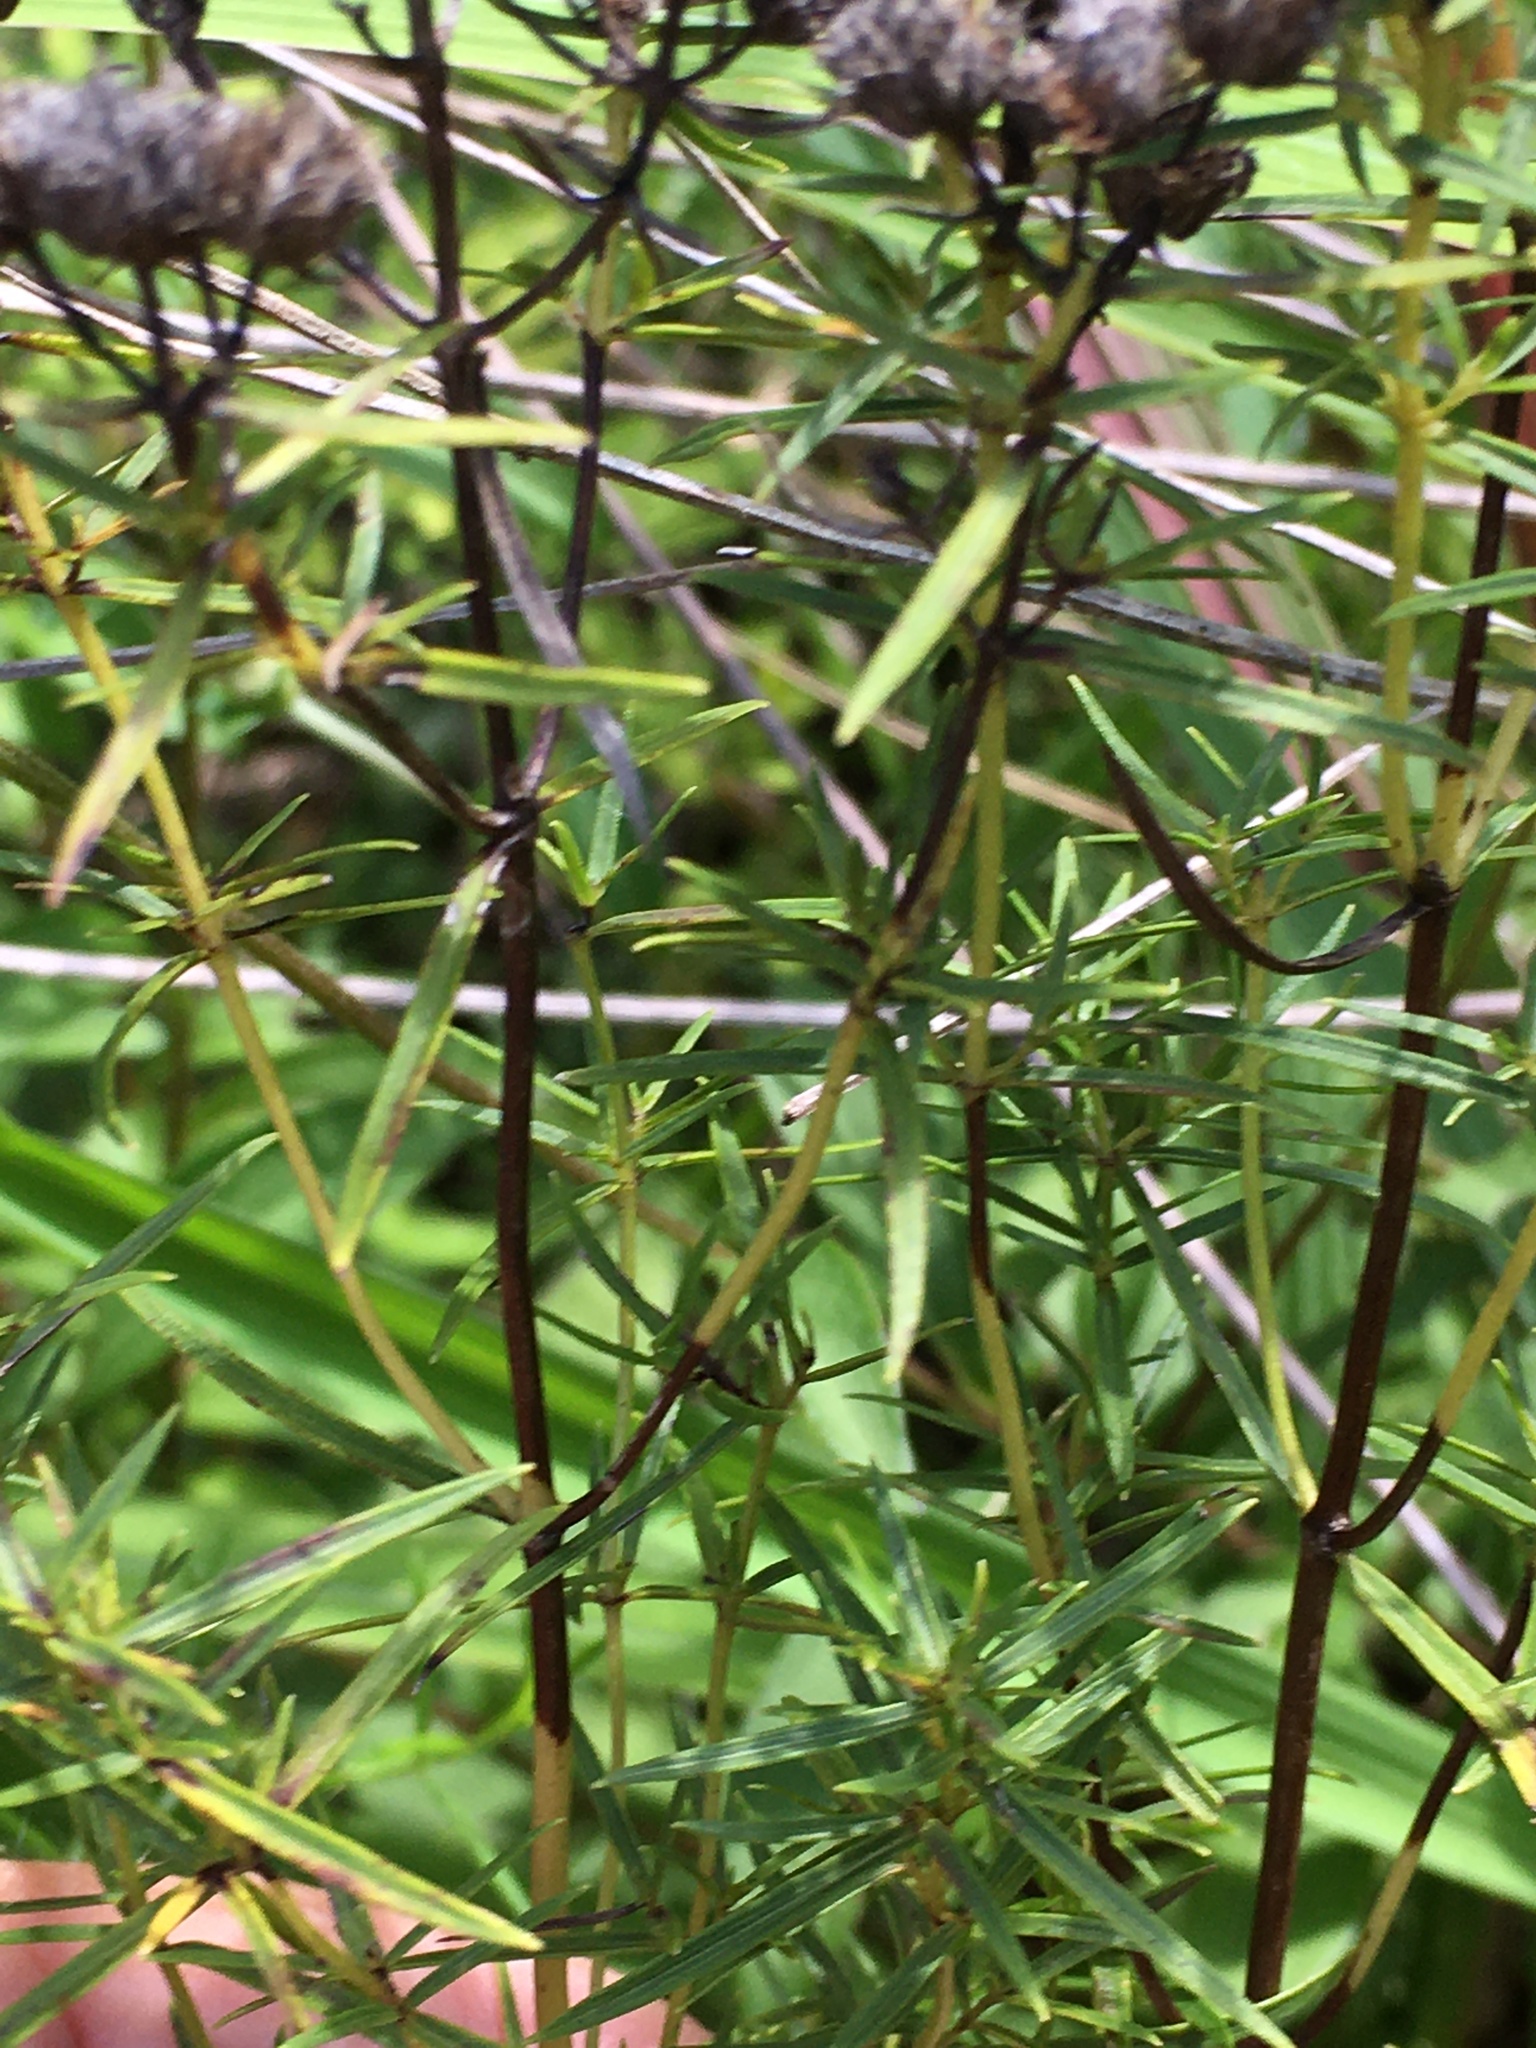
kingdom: Plantae
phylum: Tracheophyta
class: Magnoliopsida
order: Lamiales
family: Lamiaceae
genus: Pycnanthemum
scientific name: Pycnanthemum tenuifolium
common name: Narrow-leaf mountain-mint
